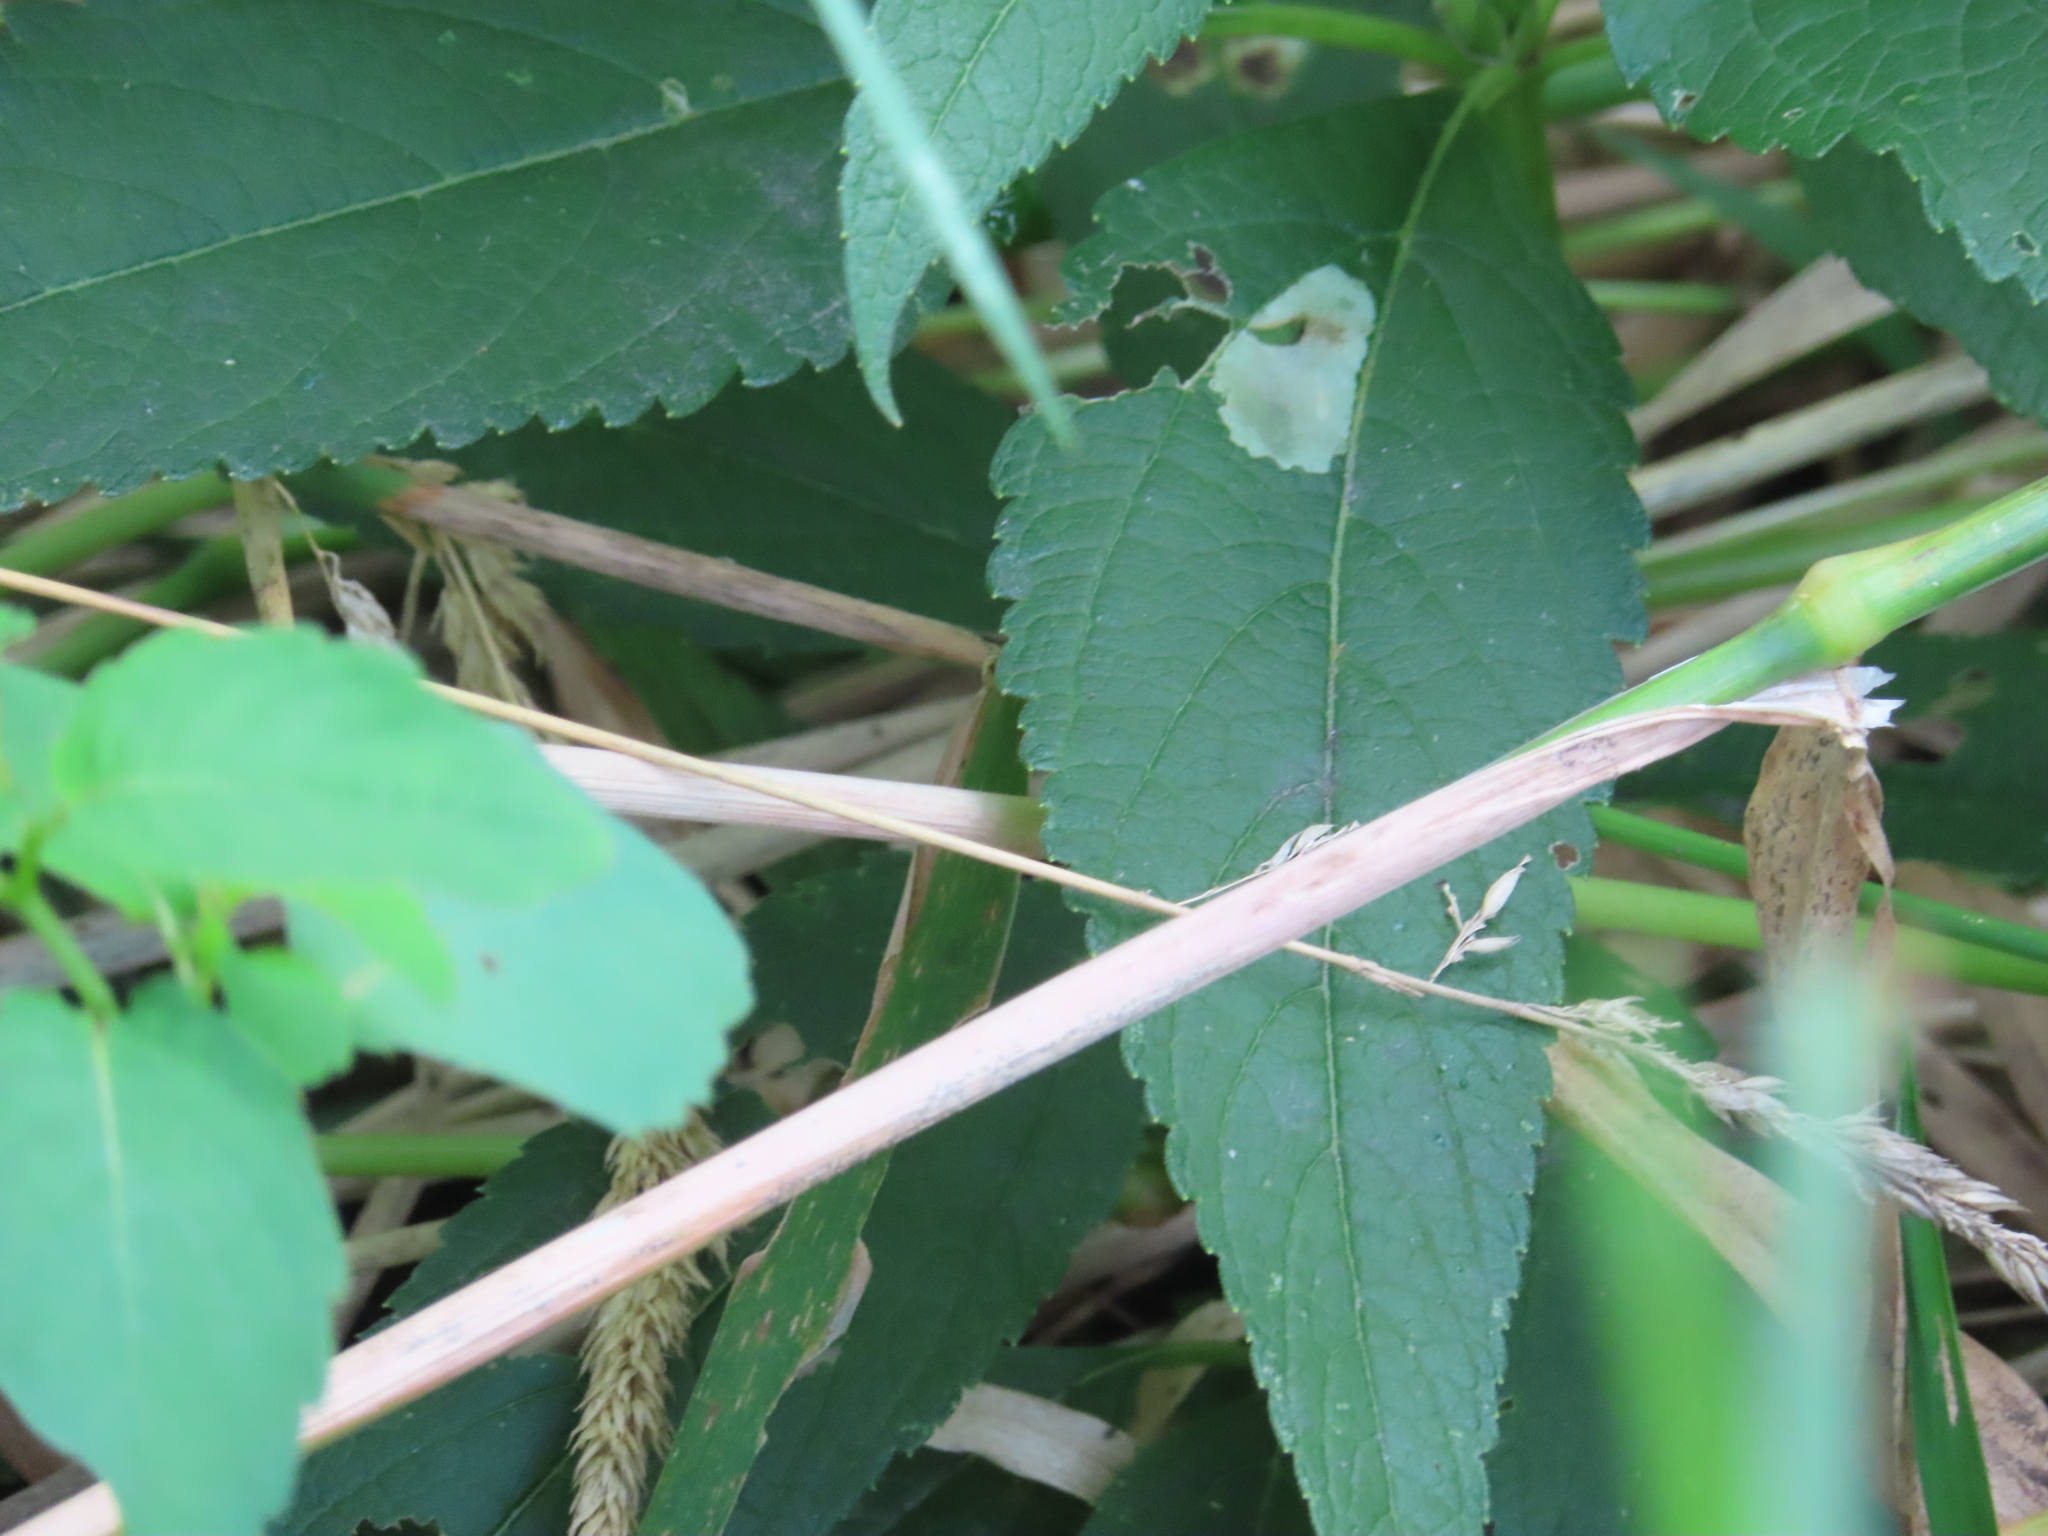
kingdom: Animalia
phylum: Arthropoda
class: Insecta
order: Diptera
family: Agromyzidae
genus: Calycomyza
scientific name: Calycomyza flavinotum
